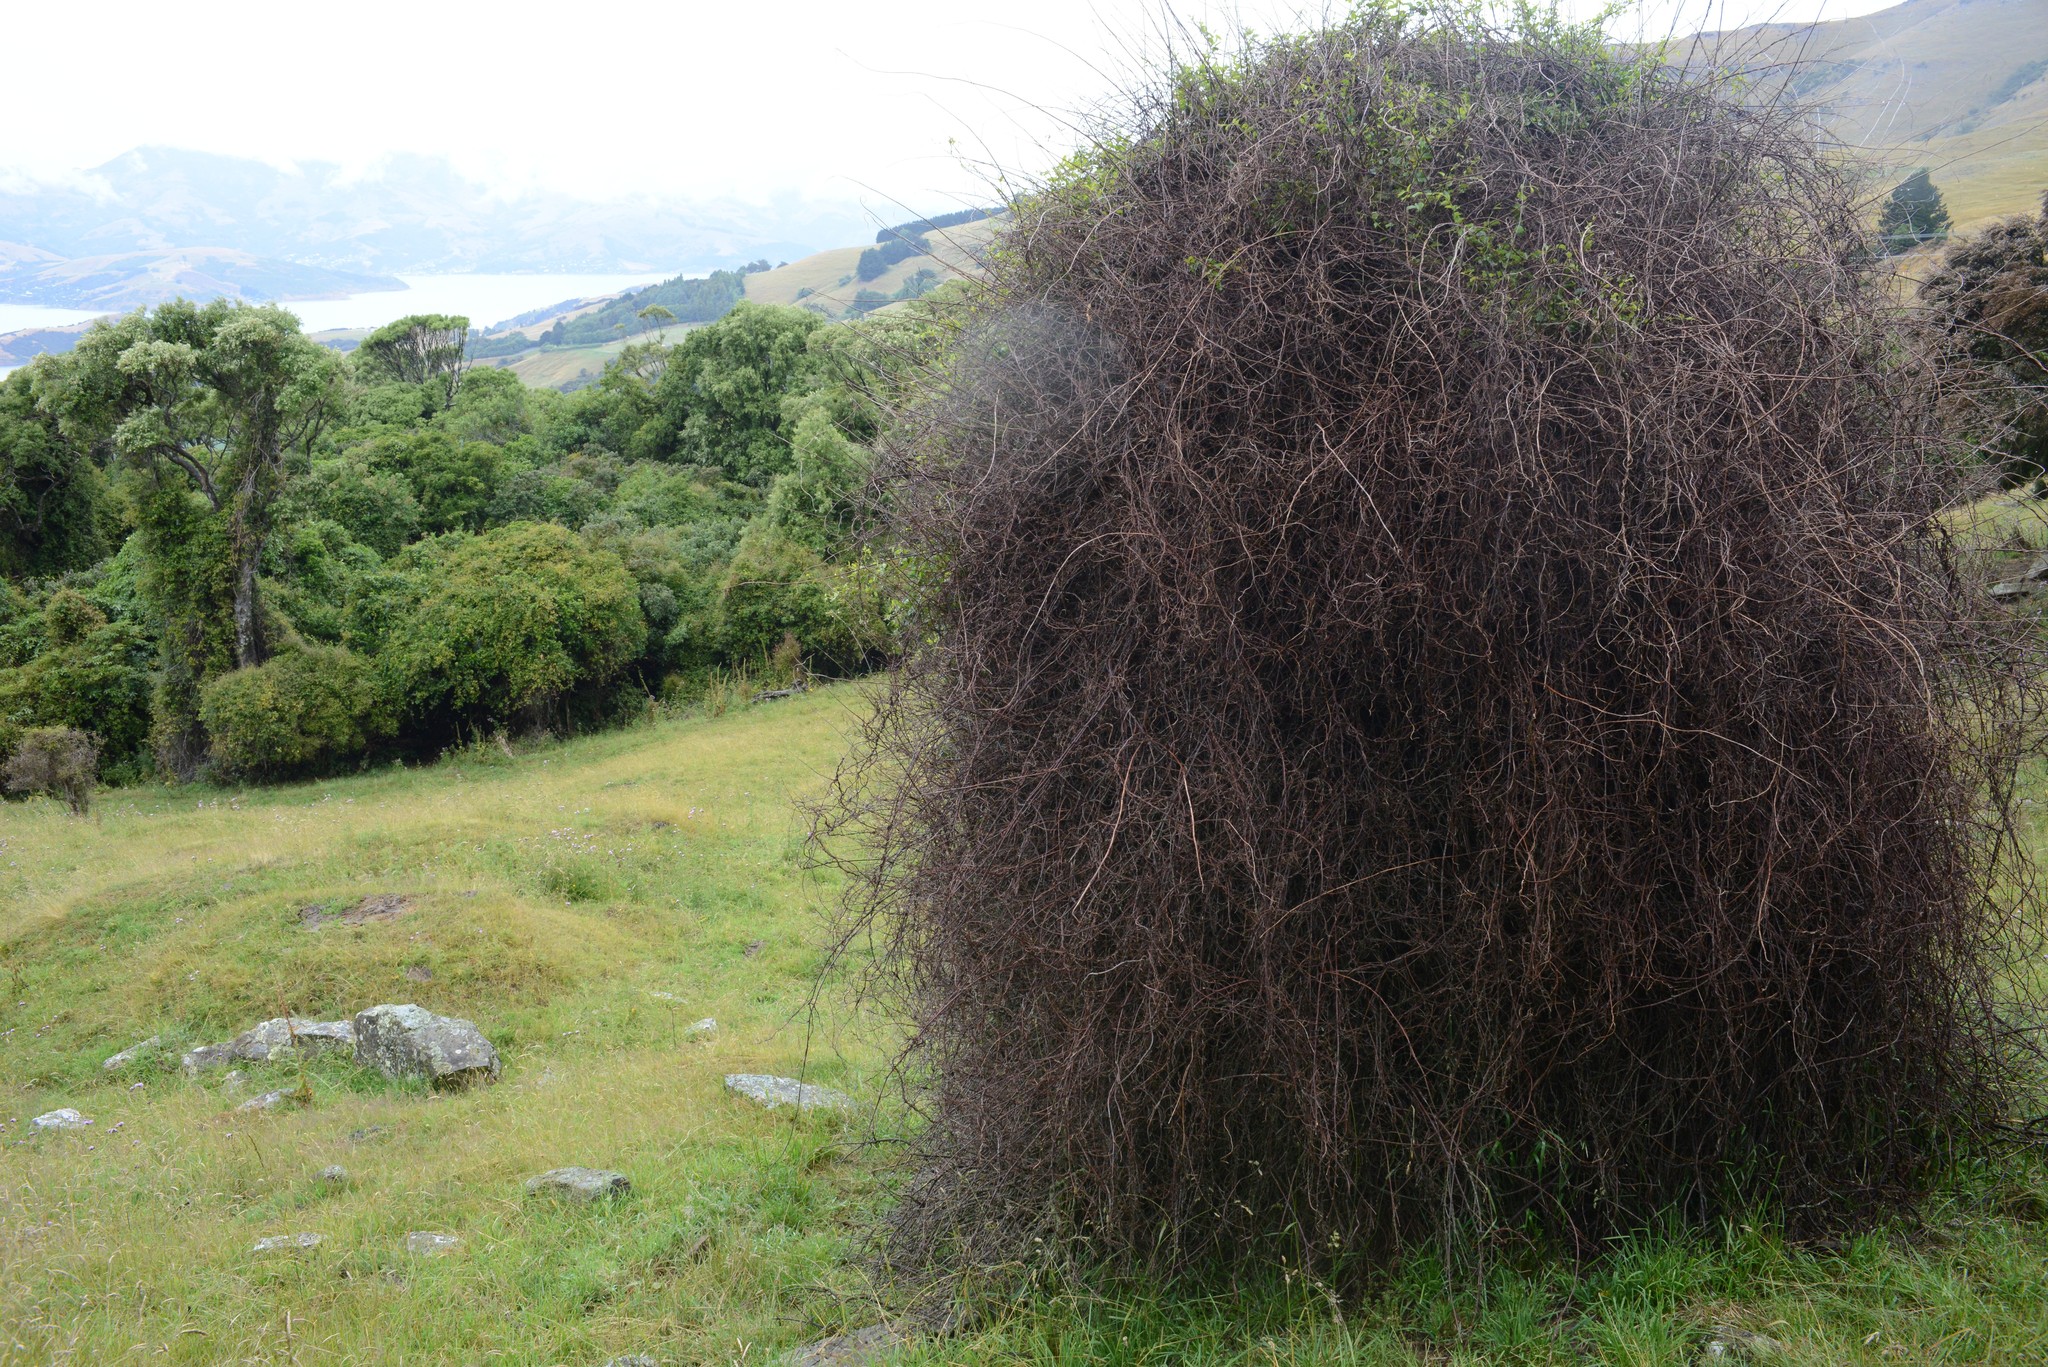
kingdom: Plantae
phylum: Tracheophyta
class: Magnoliopsida
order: Caryophyllales
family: Polygonaceae
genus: Muehlenbeckia
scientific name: Muehlenbeckia australis
